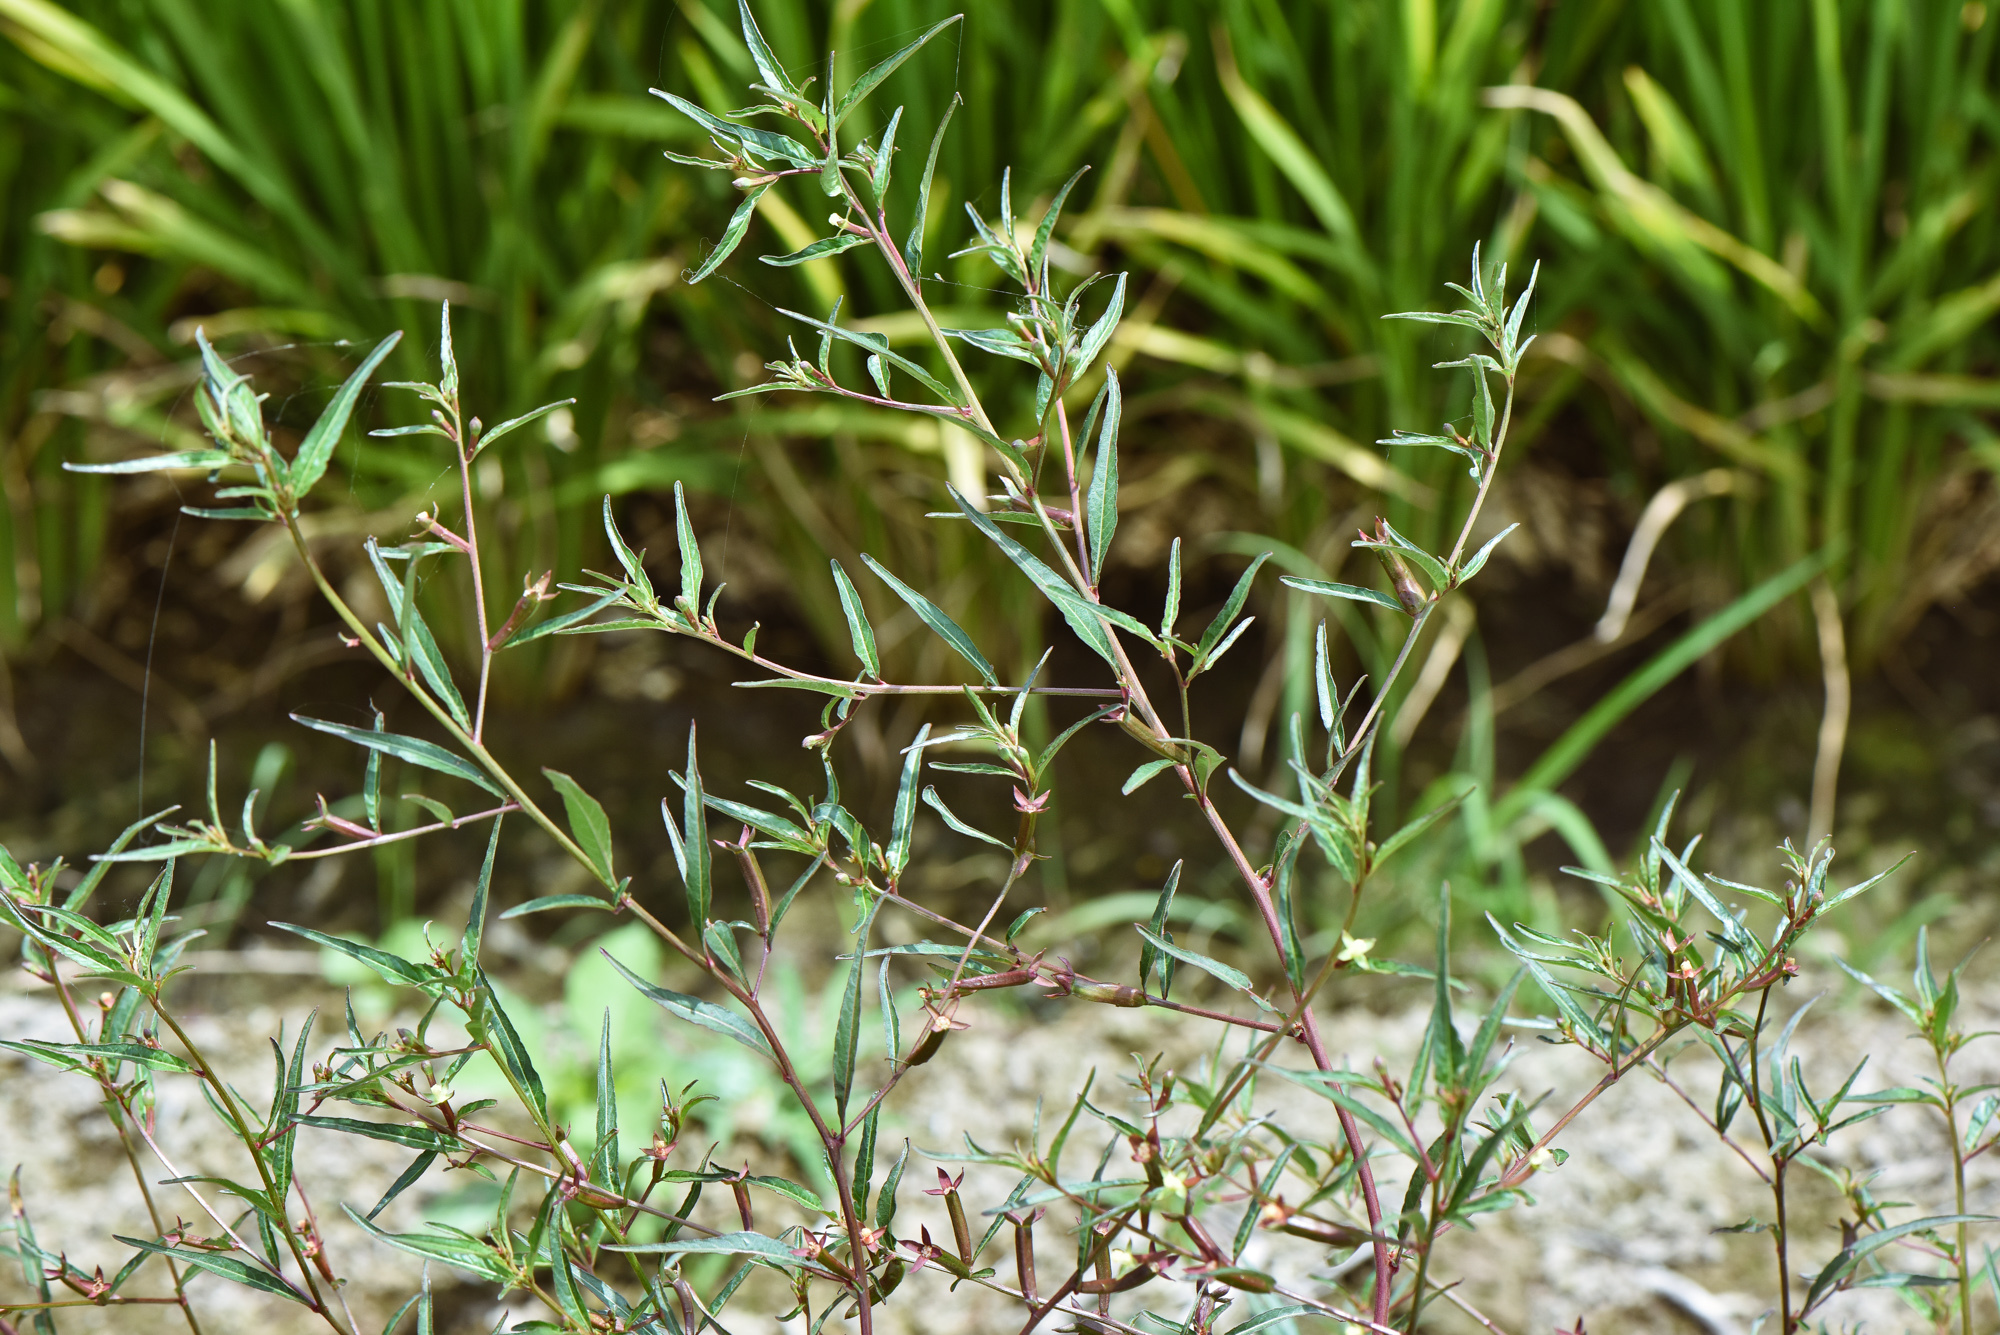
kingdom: Plantae
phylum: Tracheophyta
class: Magnoliopsida
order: Myrtales
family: Onagraceae
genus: Ludwigia
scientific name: Ludwigia perennis
